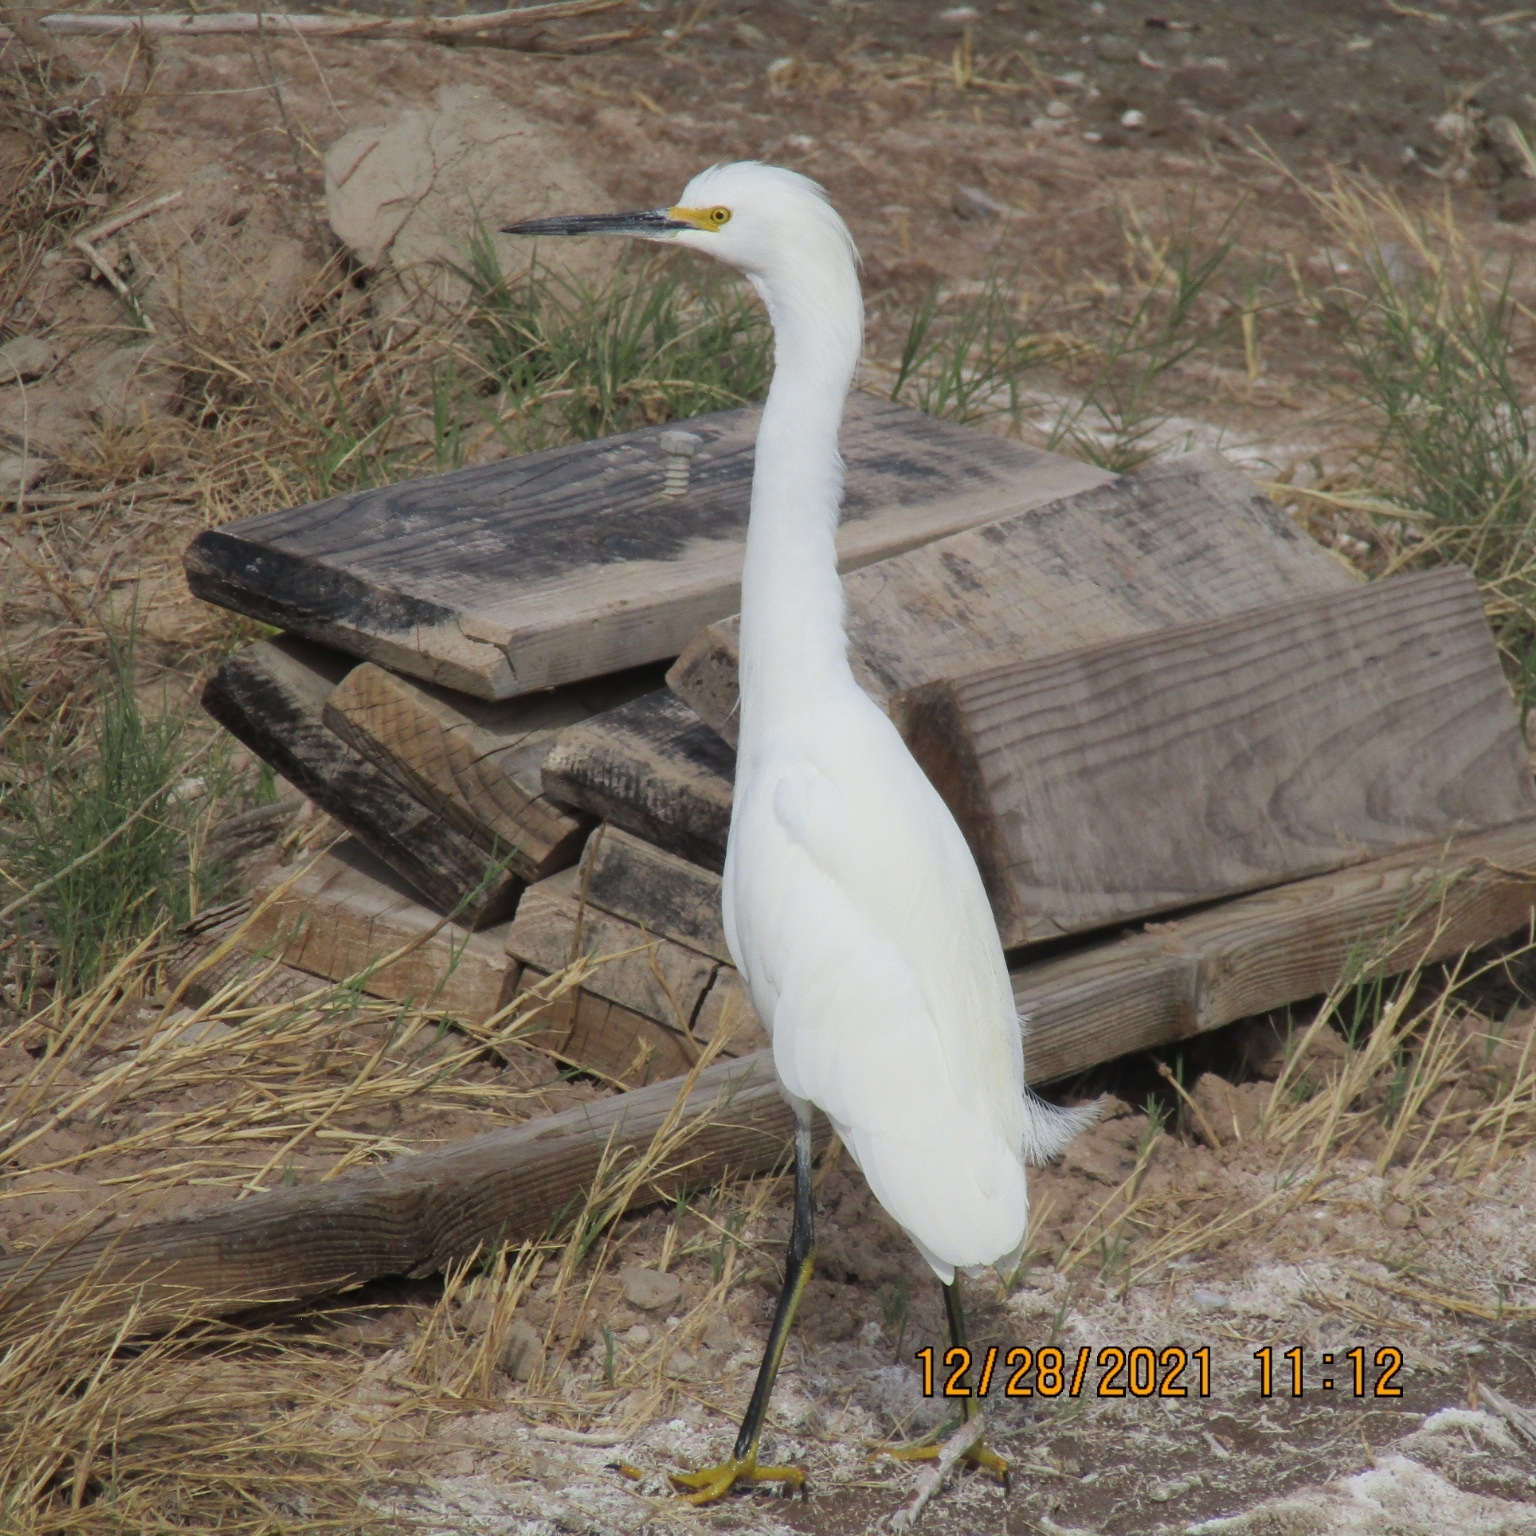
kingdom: Animalia
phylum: Chordata
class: Aves
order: Pelecaniformes
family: Ardeidae
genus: Egretta
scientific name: Egretta thula
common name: Snowy egret
